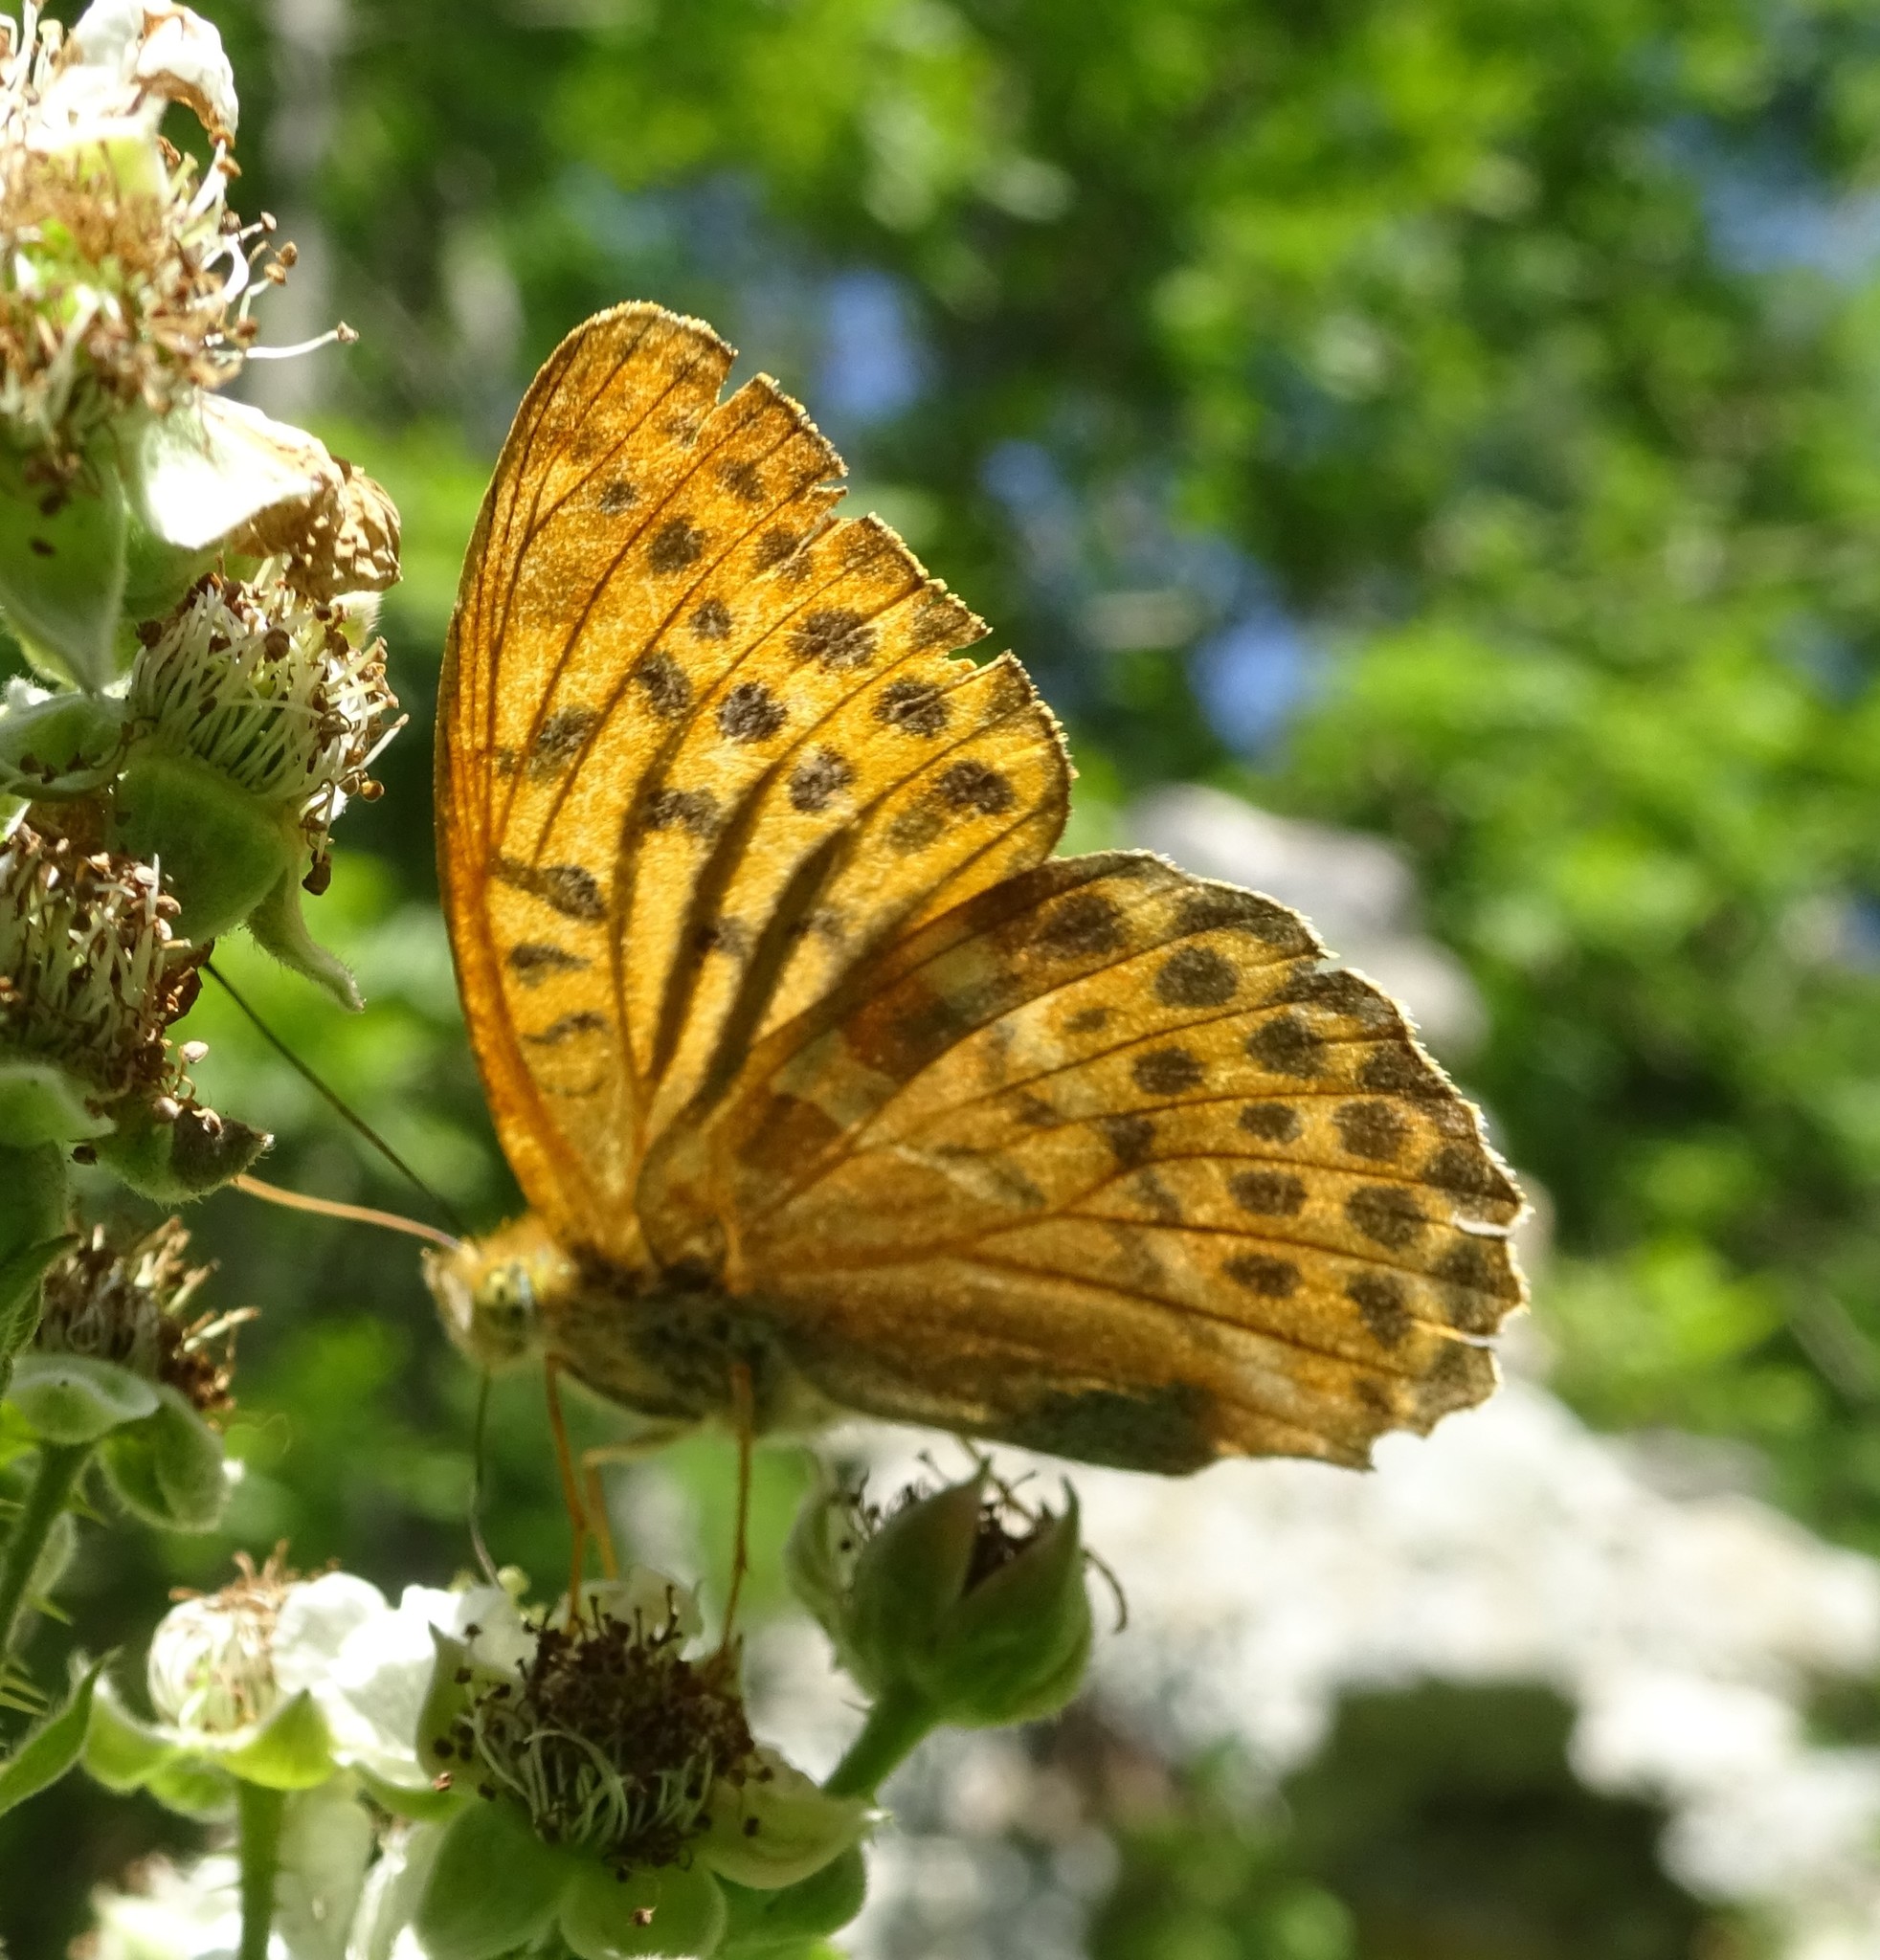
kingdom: Animalia
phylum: Arthropoda
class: Insecta
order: Lepidoptera
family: Nymphalidae
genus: Argynnis
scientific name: Argynnis paphia
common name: Silver-washed fritillary
